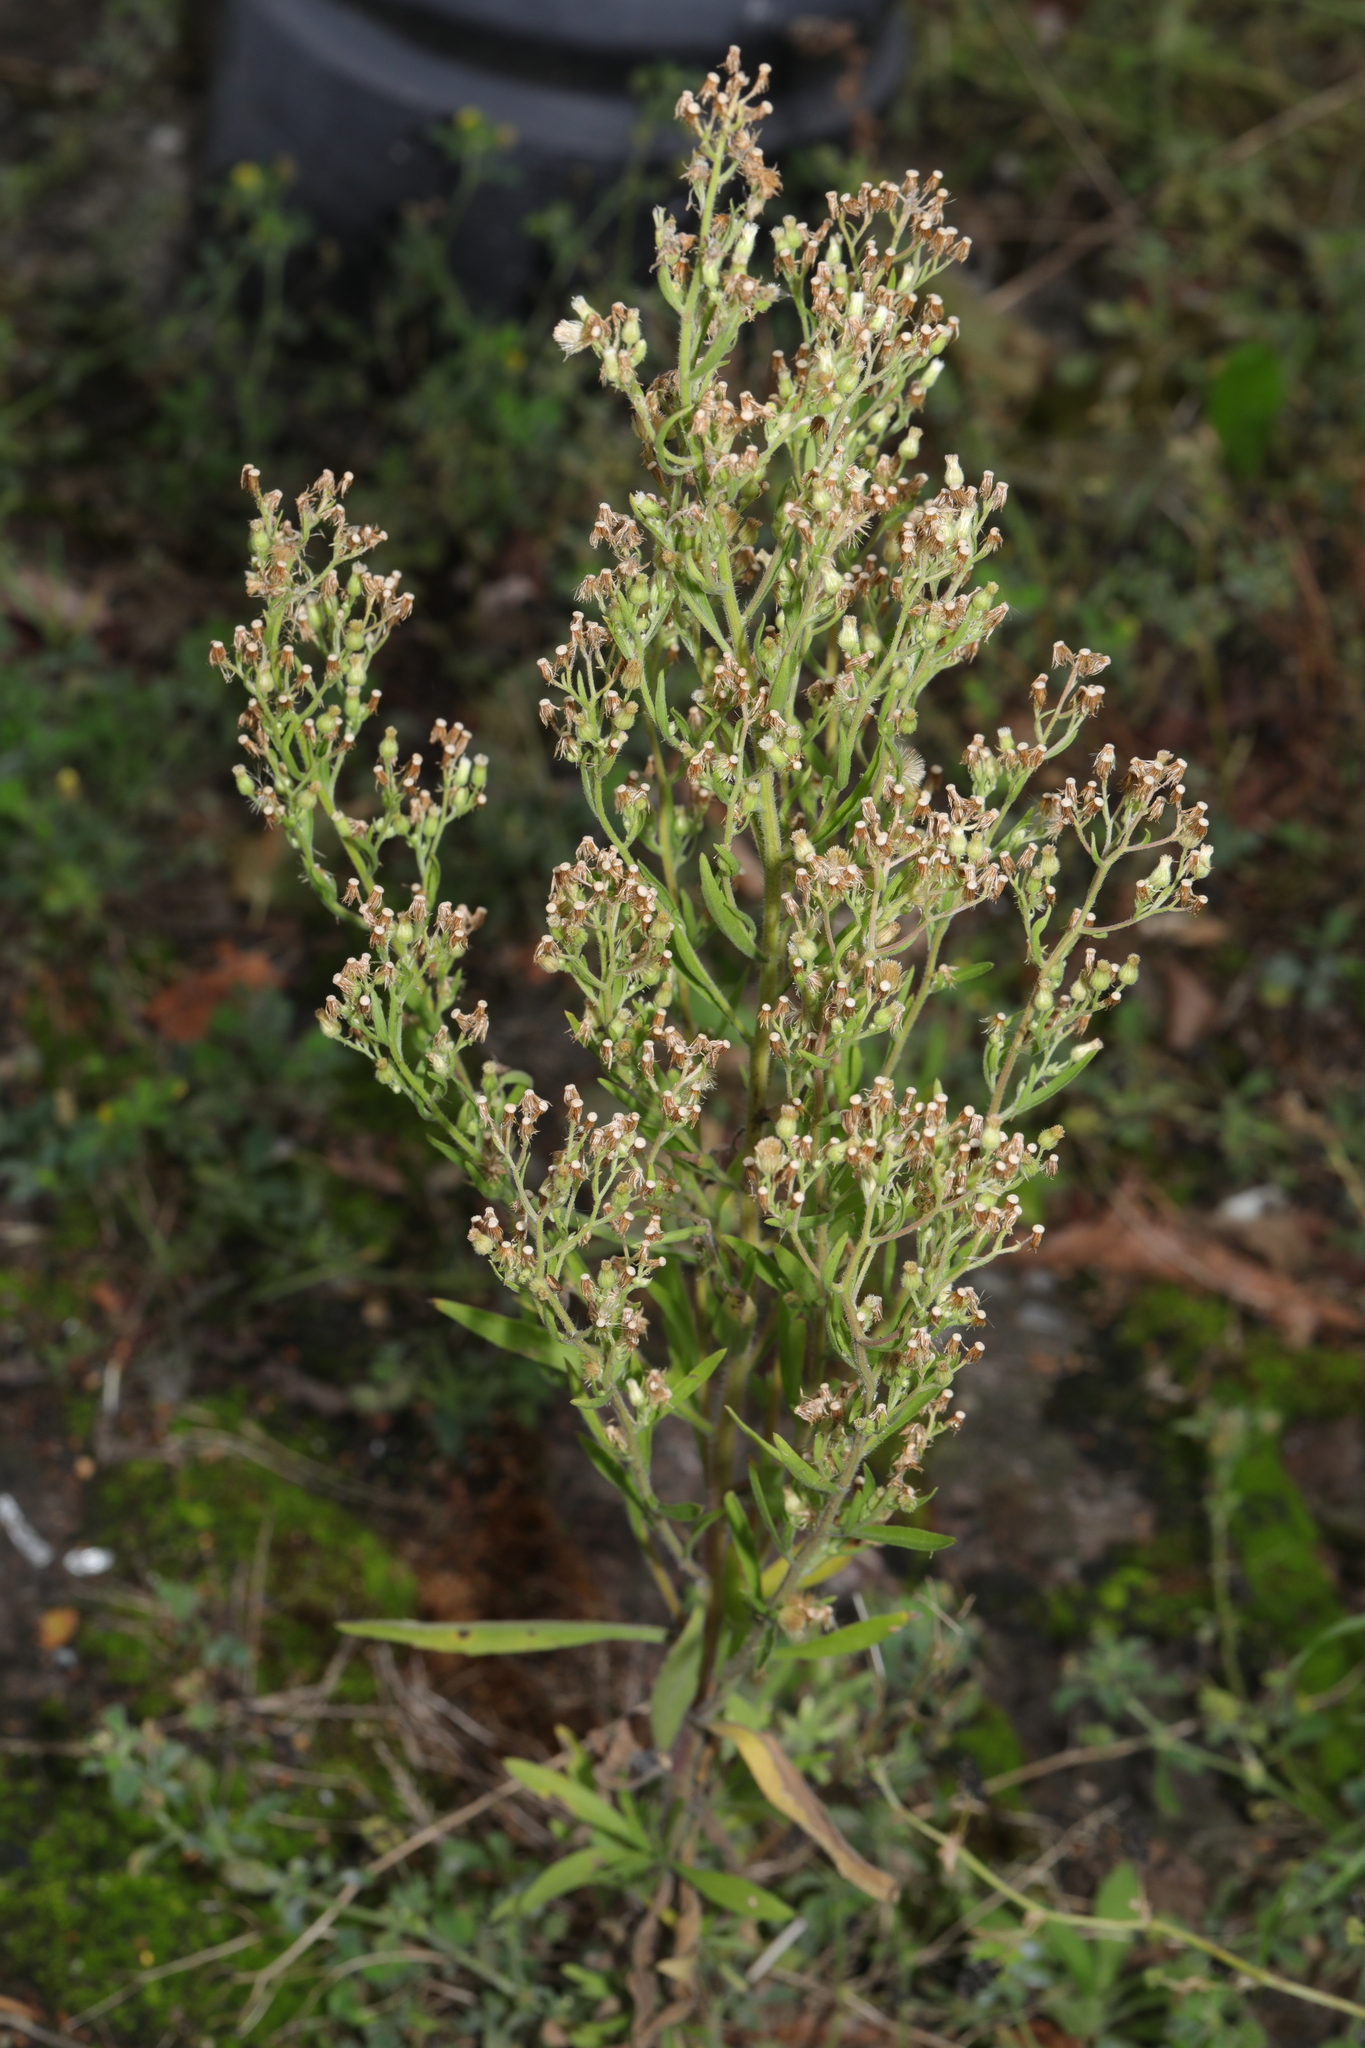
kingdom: Plantae
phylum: Tracheophyta
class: Magnoliopsida
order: Asterales
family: Asteraceae
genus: Erigeron
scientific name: Erigeron sumatrensis
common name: Daisy
